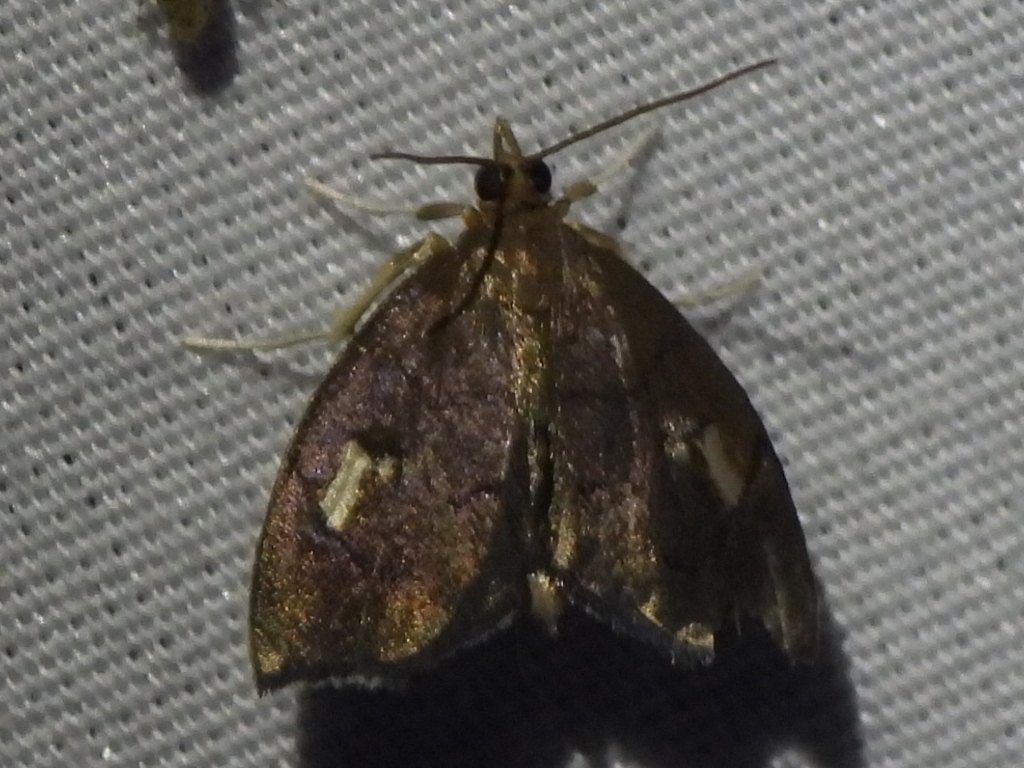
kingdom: Animalia
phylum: Arthropoda
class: Insecta
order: Lepidoptera
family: Crambidae
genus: Perispasta
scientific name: Perispasta caeculalis
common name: Titian peale's moth
